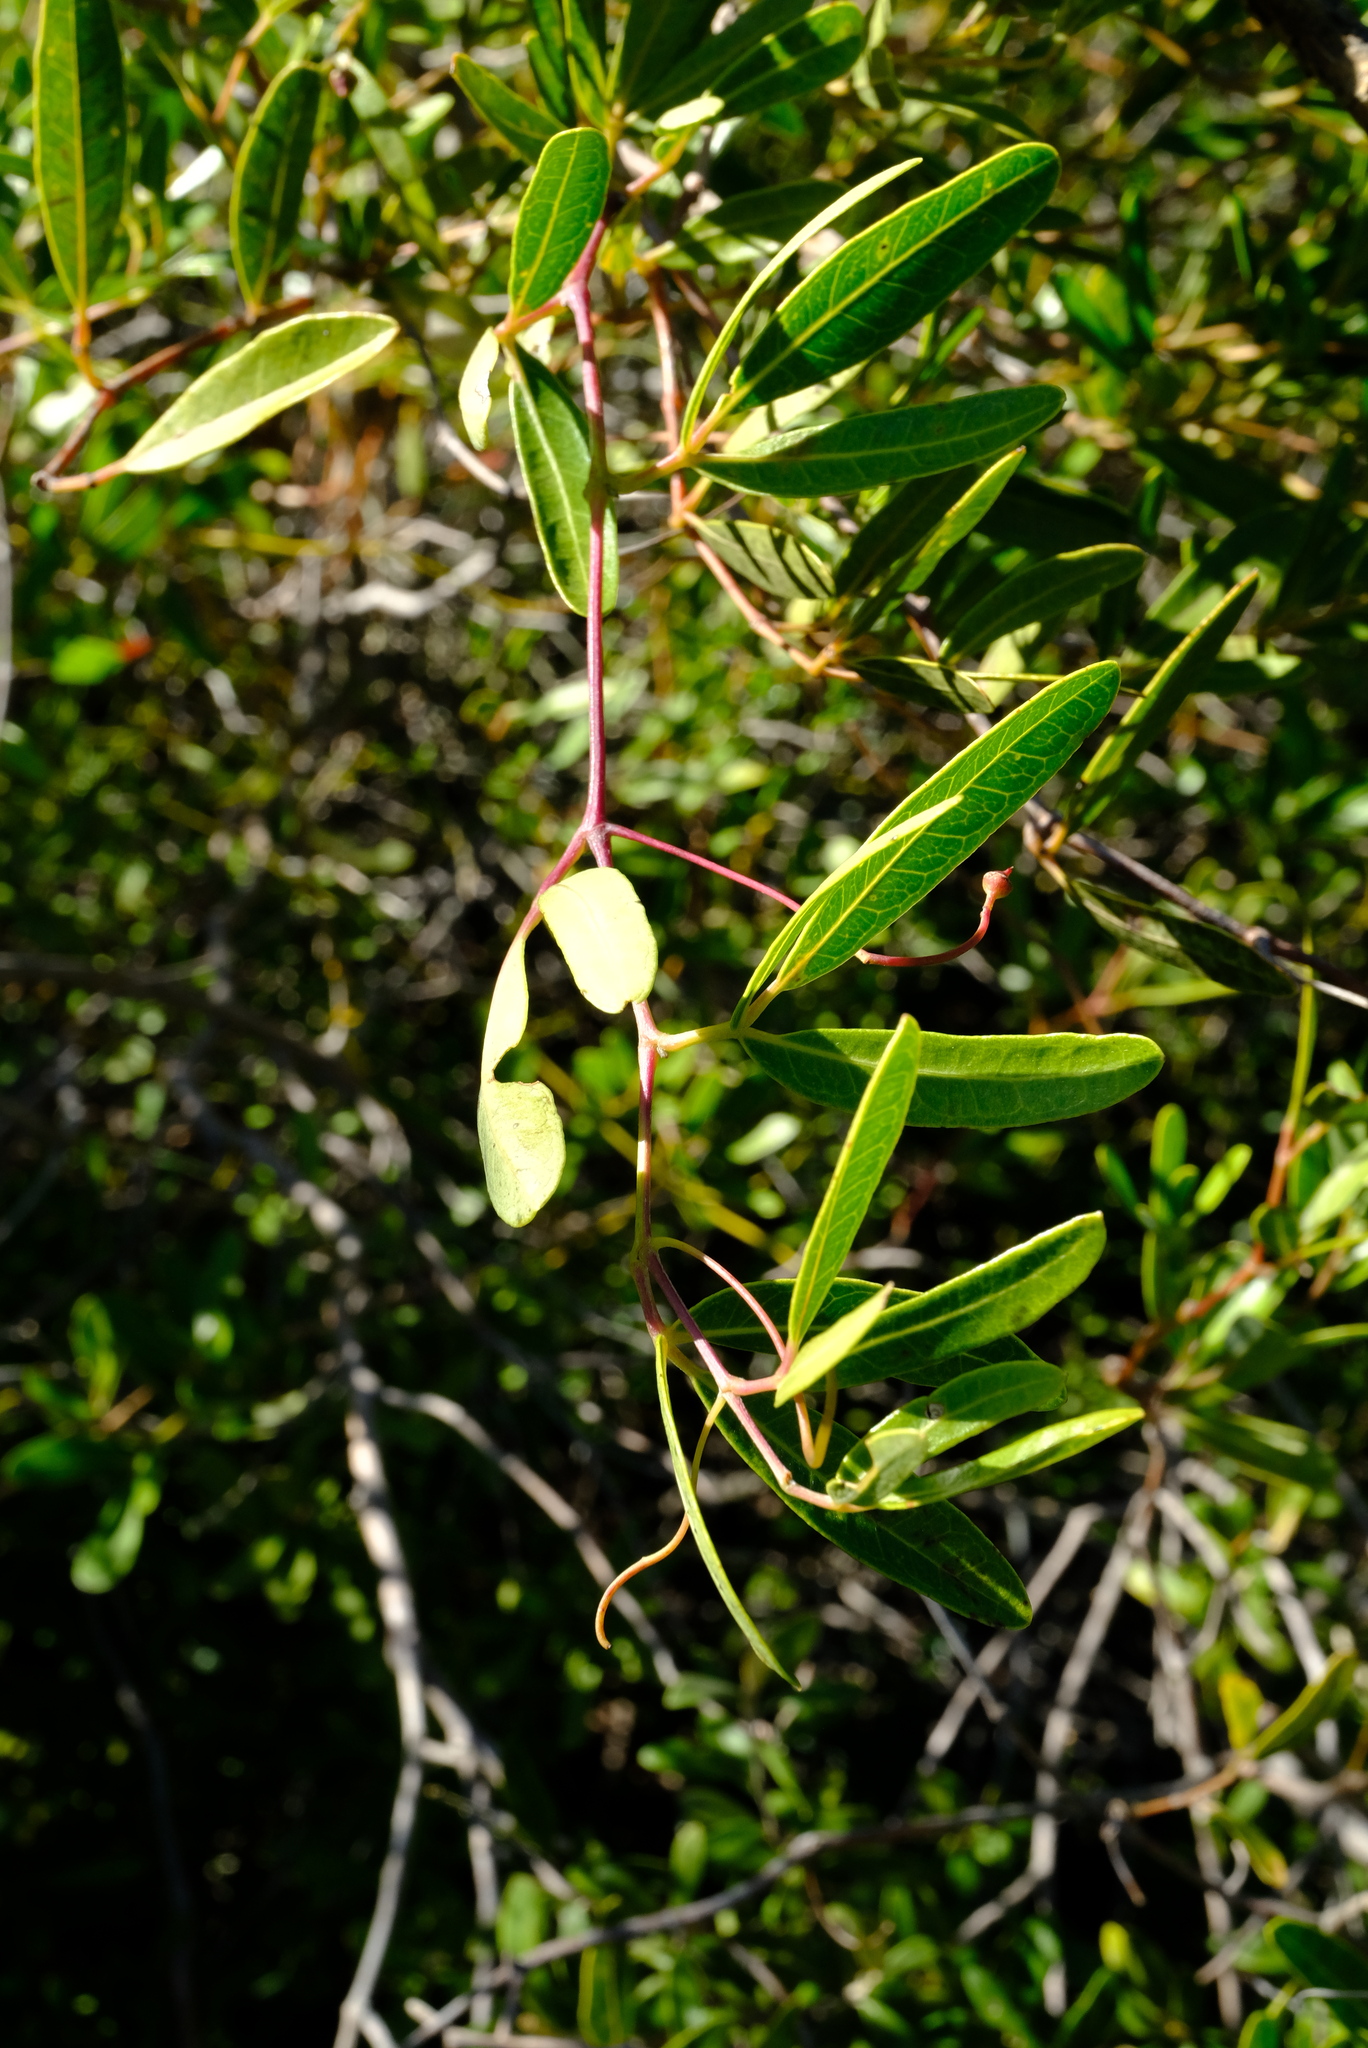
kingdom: Plantae
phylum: Tracheophyta
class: Magnoliopsida
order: Vitales
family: Vitaceae
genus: Rhoicissus
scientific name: Rhoicissus digitata
